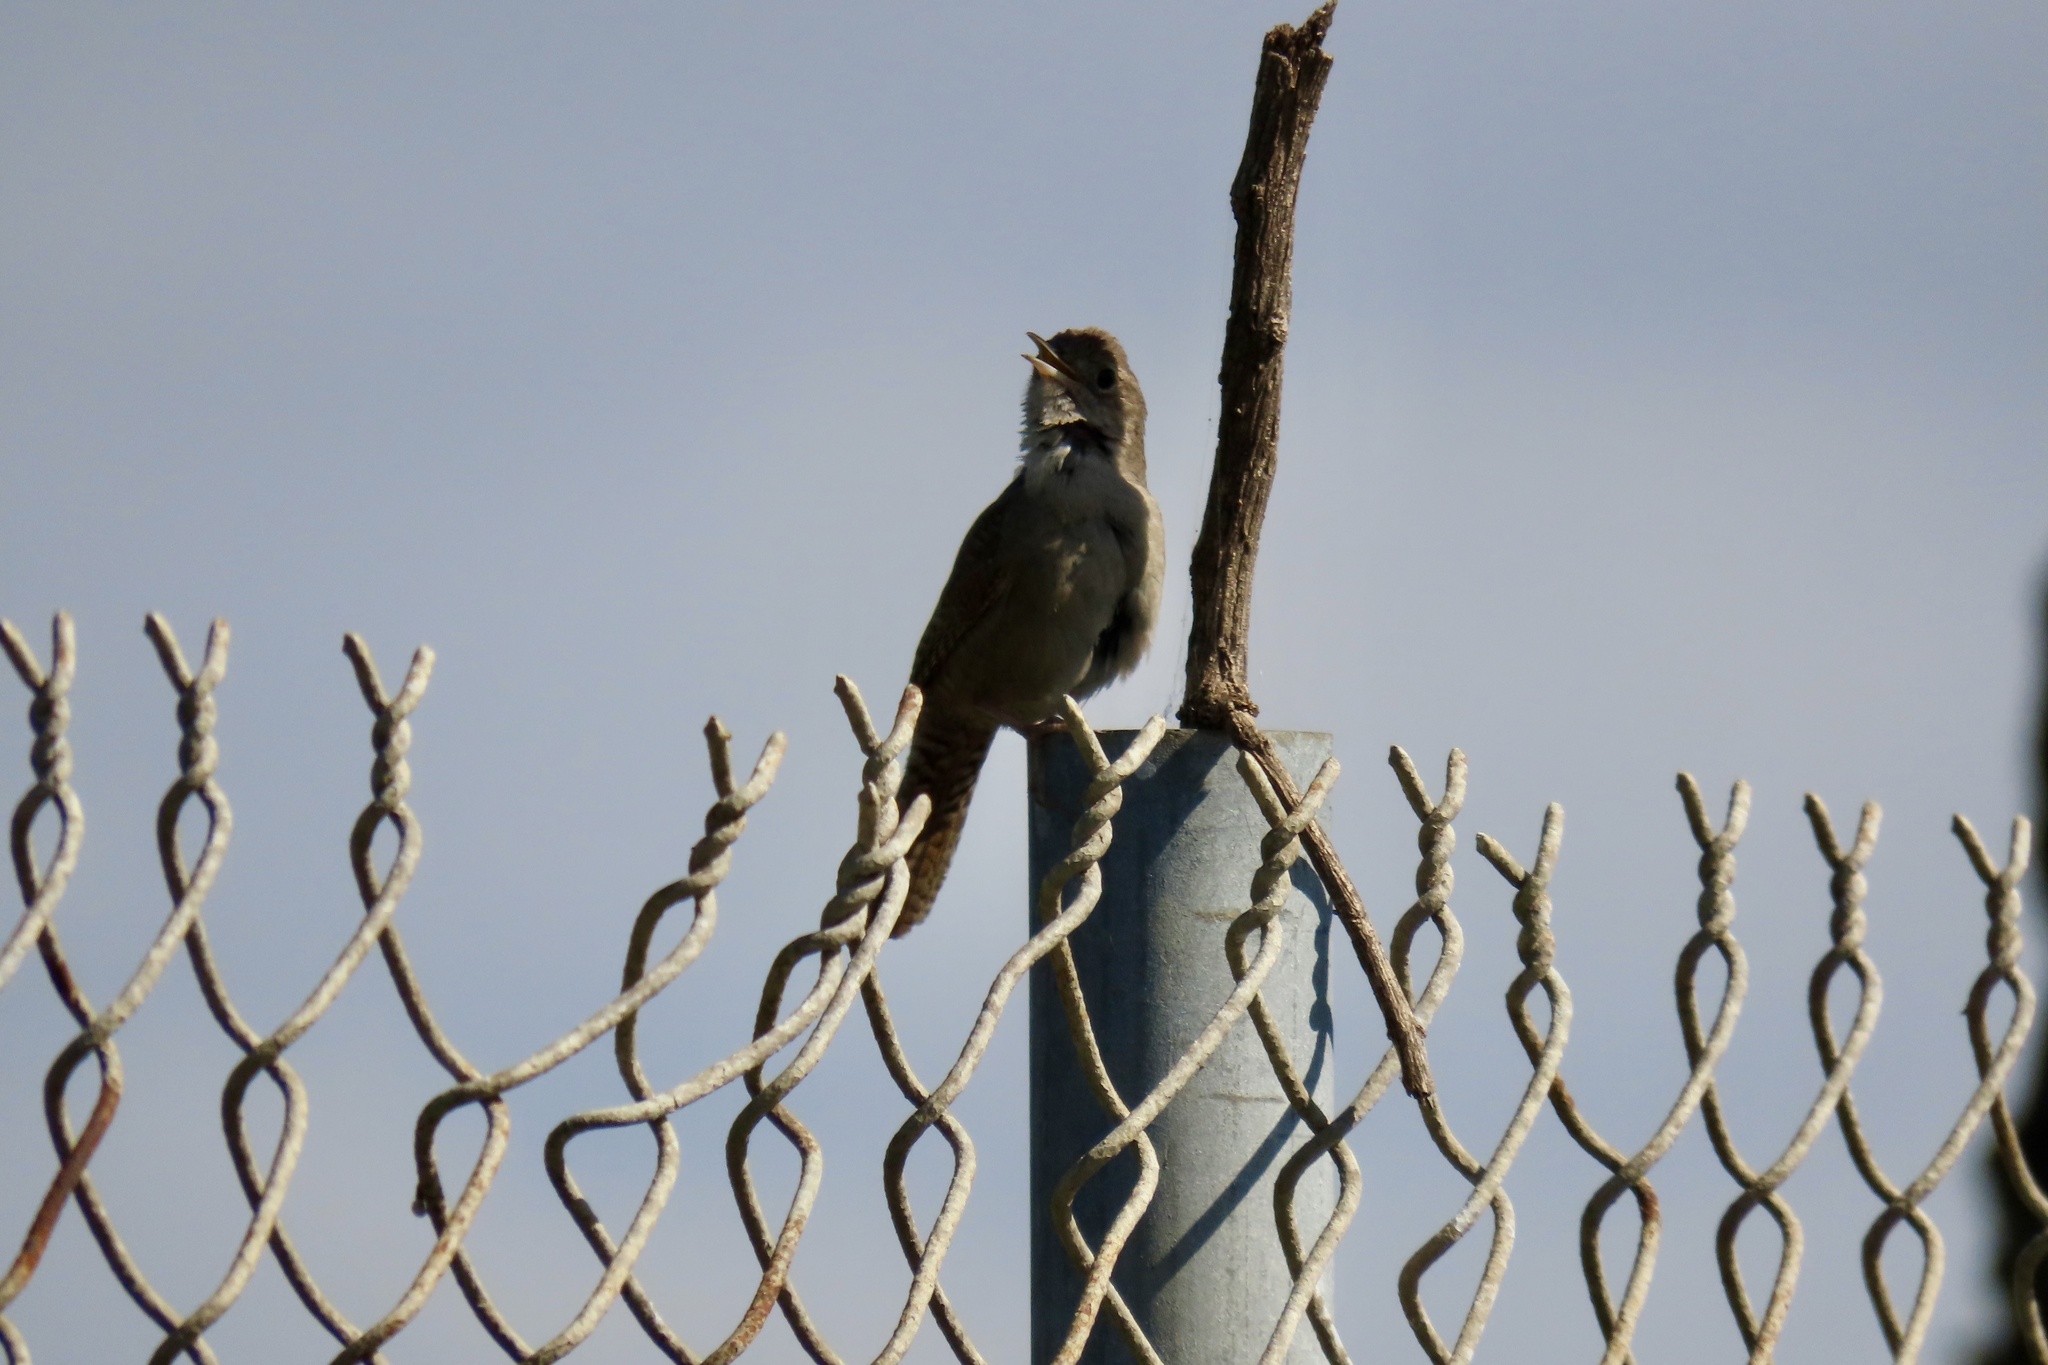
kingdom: Animalia
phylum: Chordata
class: Aves
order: Passeriformes
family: Troglodytidae
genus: Troglodytes
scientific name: Troglodytes aedon
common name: House wren
